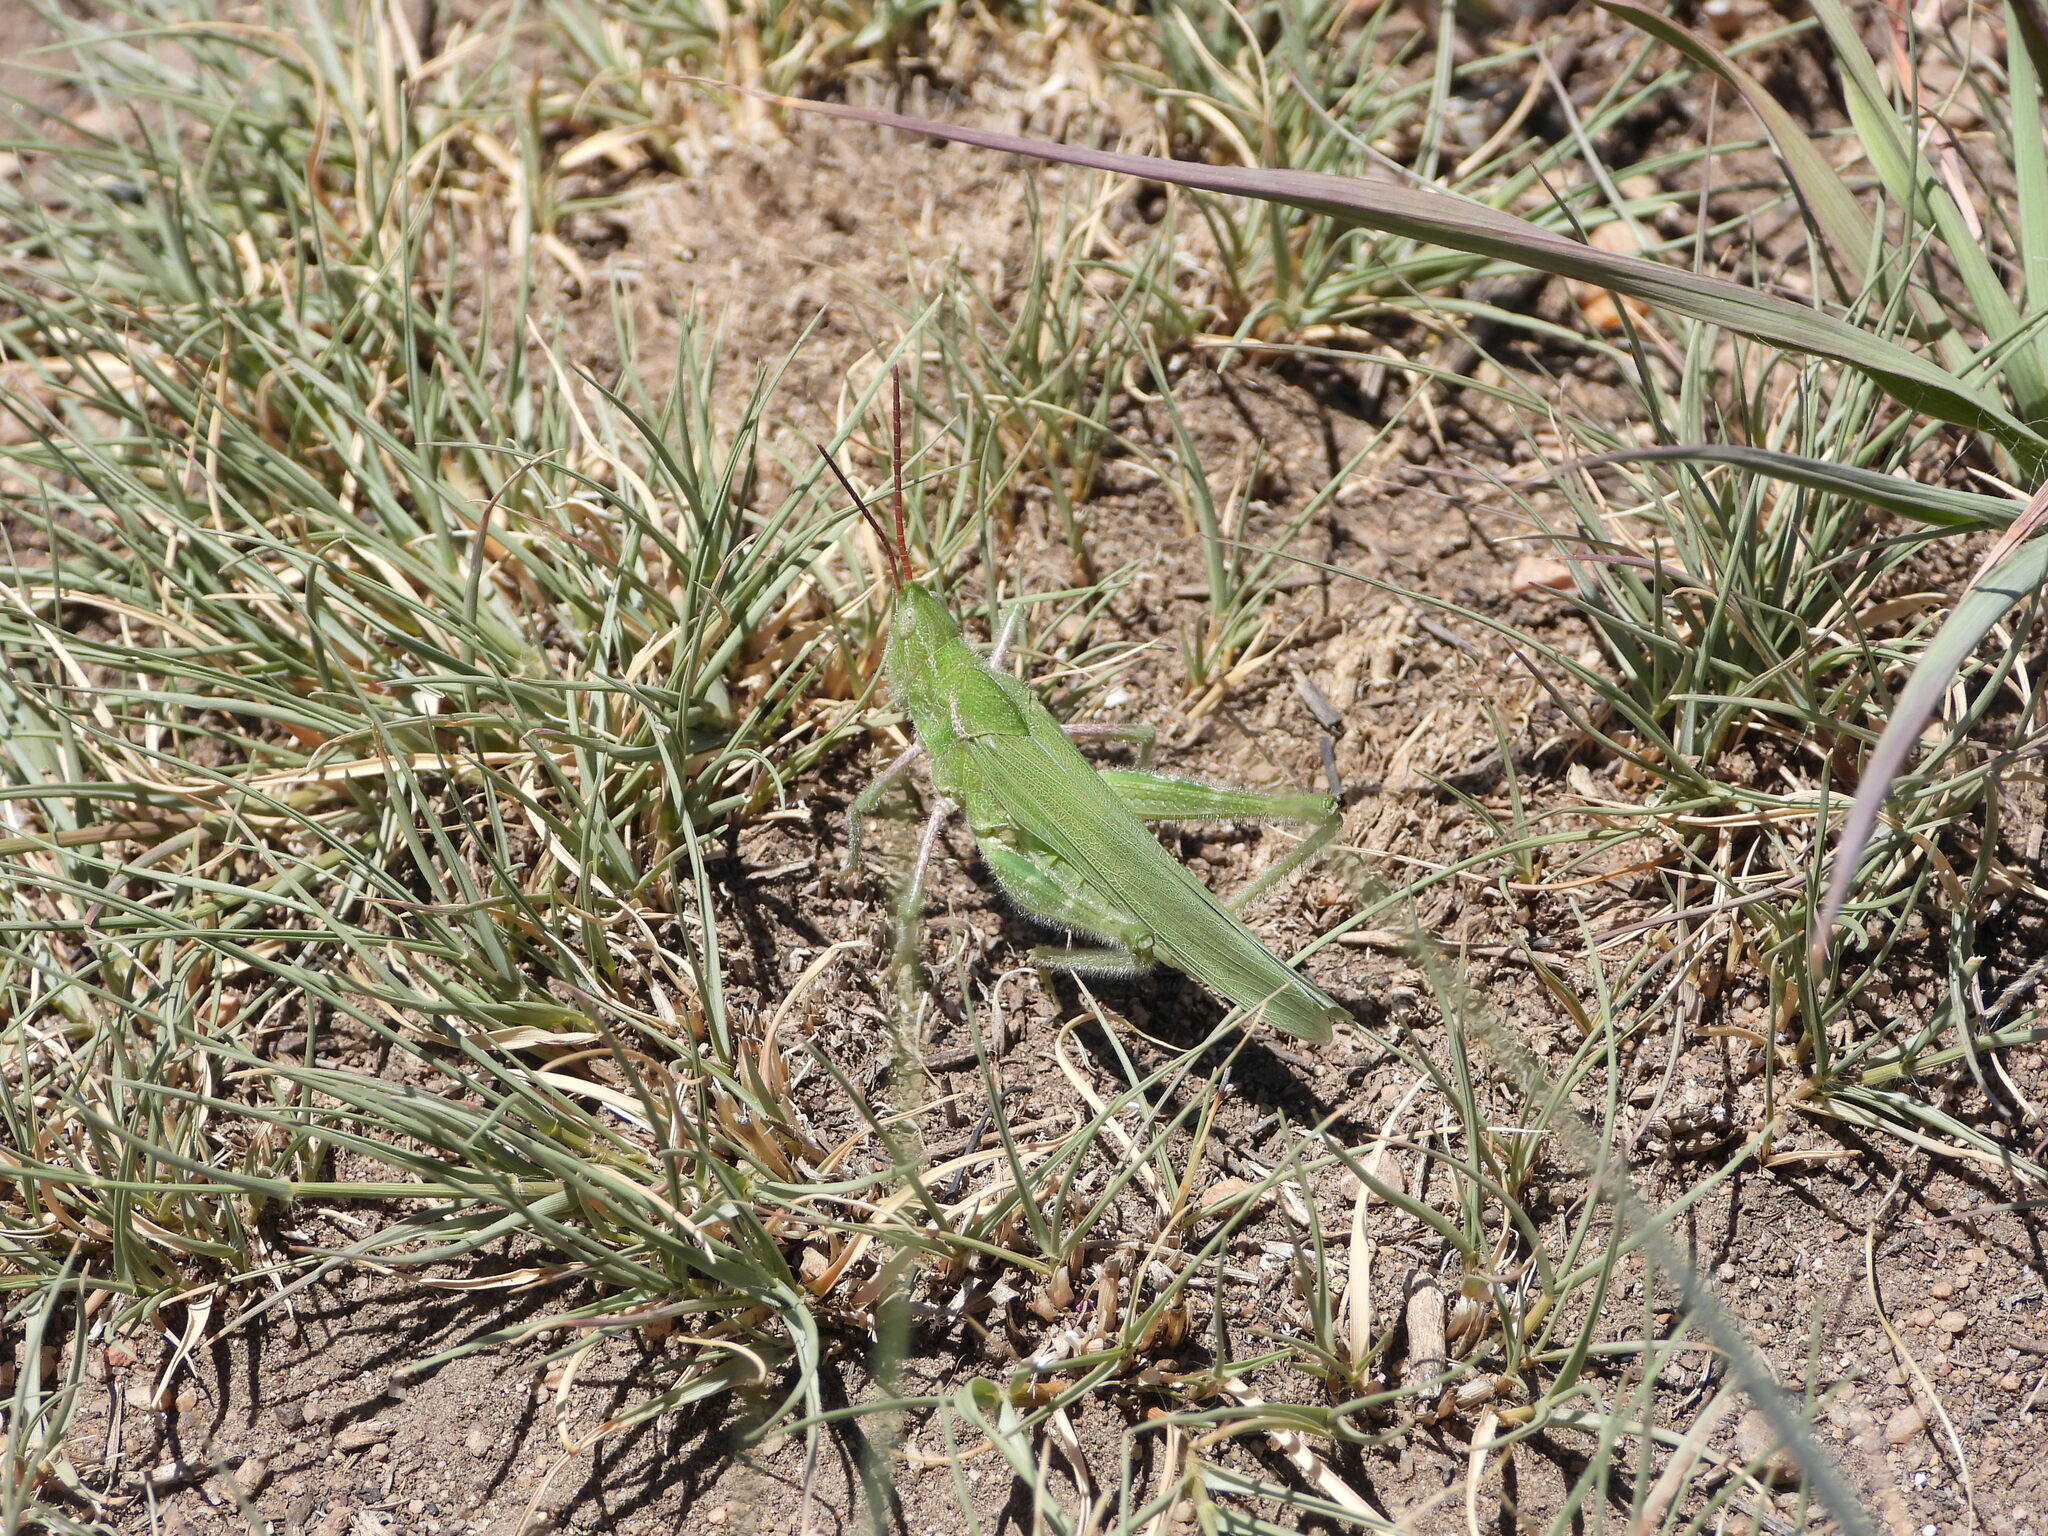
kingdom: Animalia
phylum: Arthropoda
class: Insecta
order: Orthoptera
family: Acrididae
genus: Acrolophitus
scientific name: Acrolophitus hirtipes
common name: Green fool grasshopper
